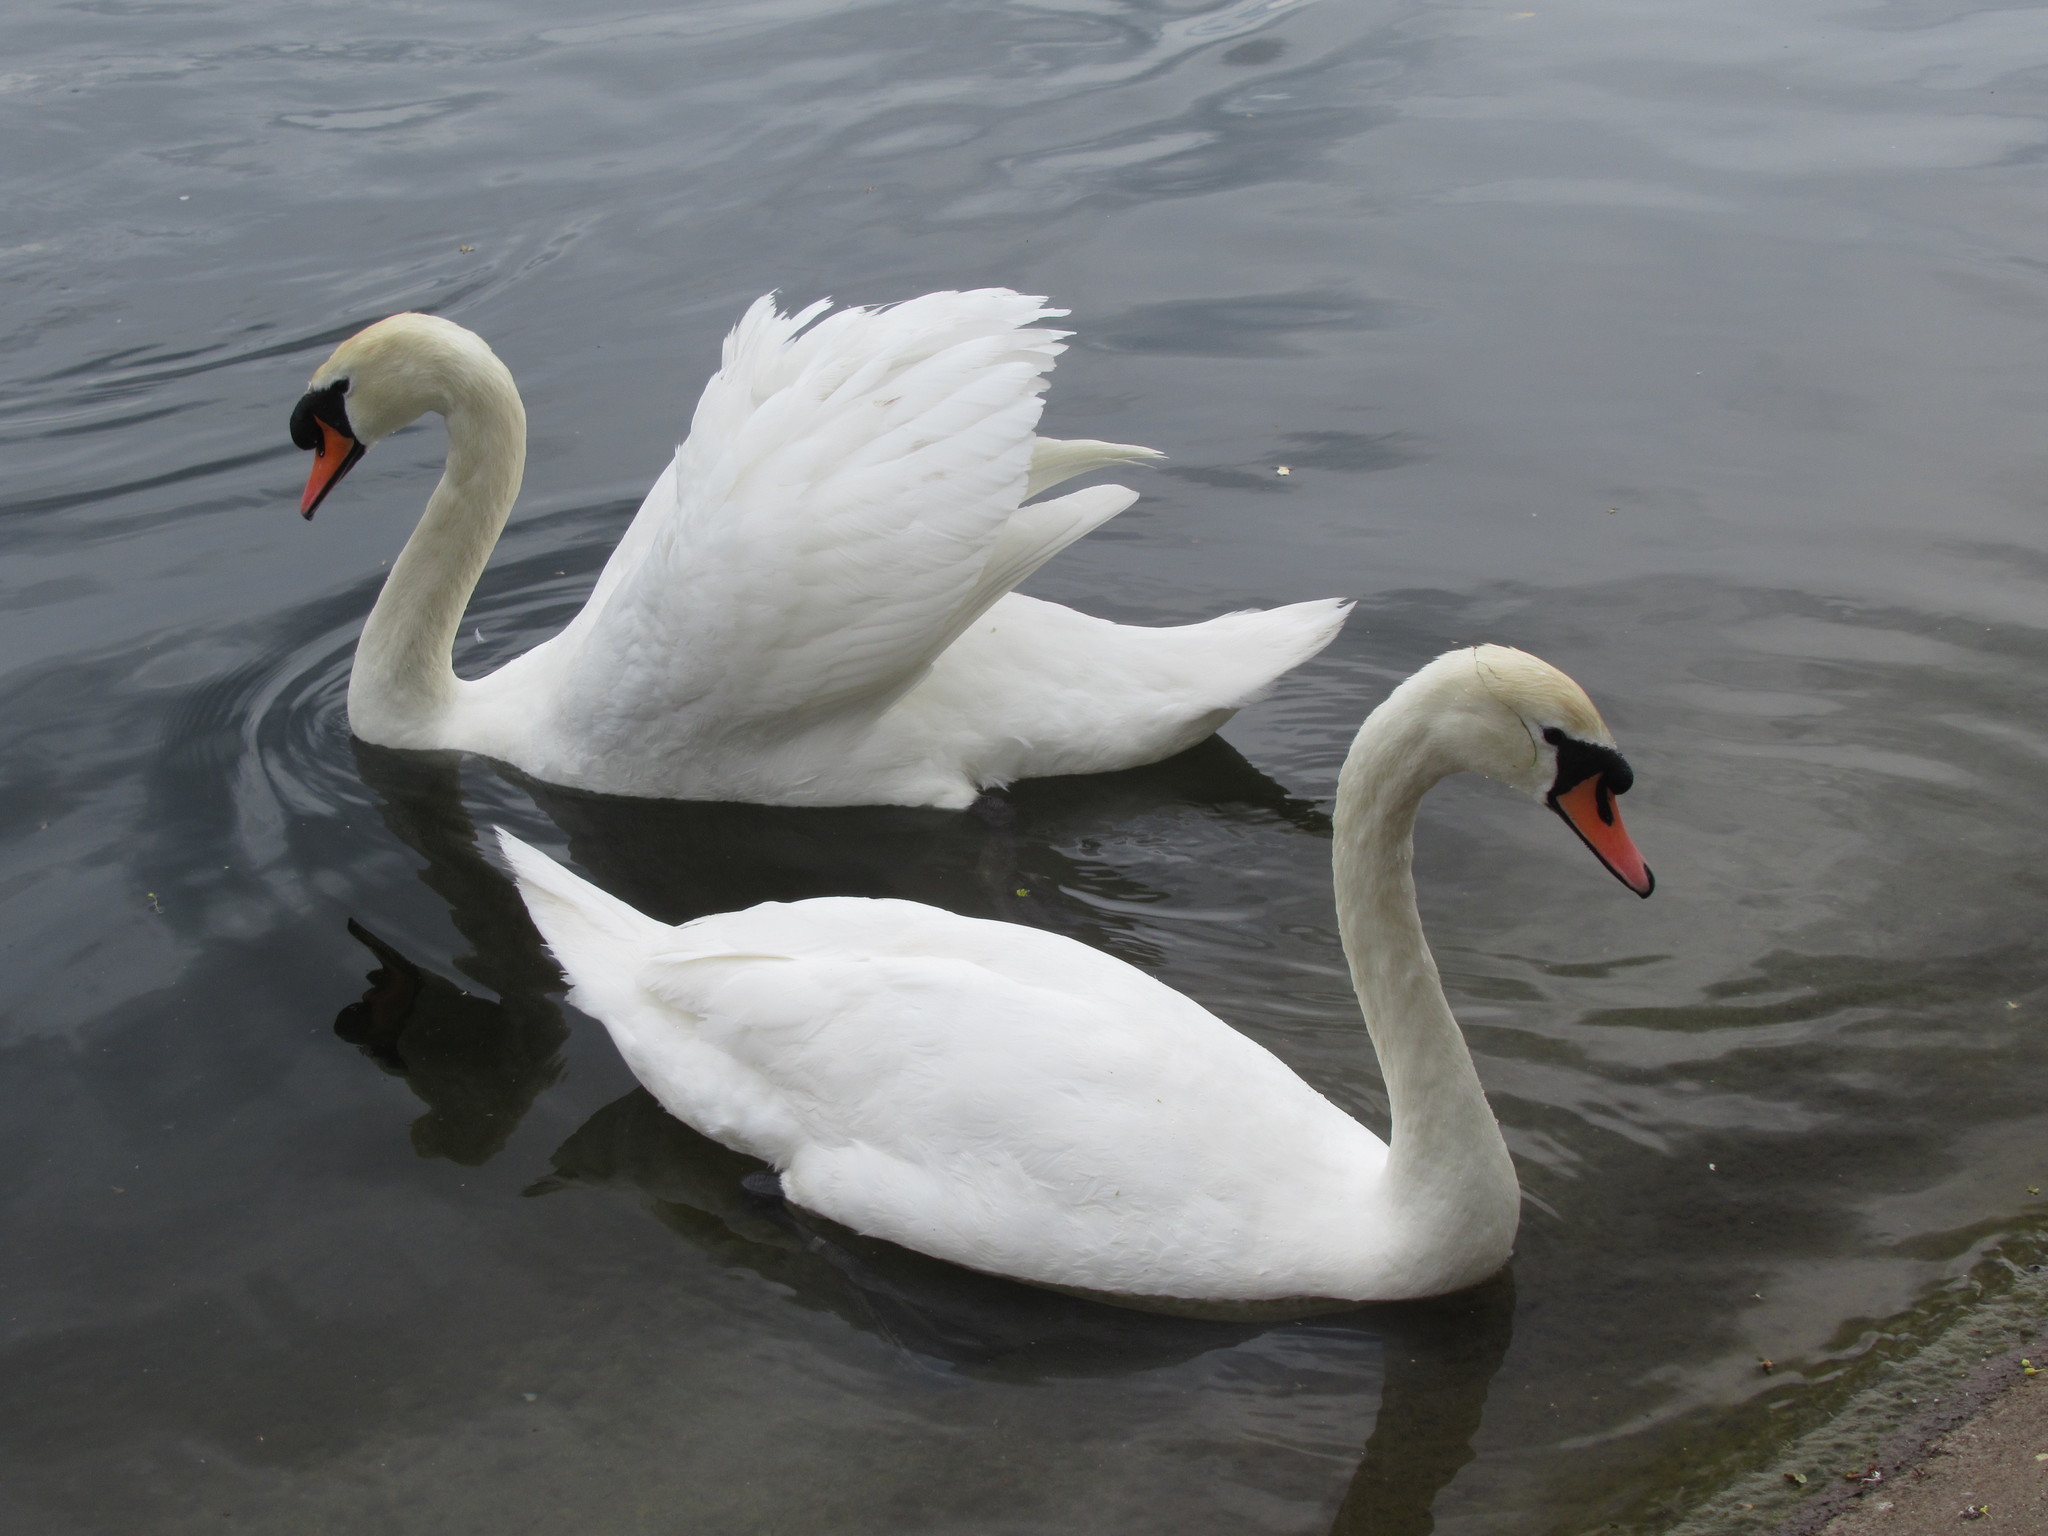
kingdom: Animalia
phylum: Chordata
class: Aves
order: Anseriformes
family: Anatidae
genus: Cygnus
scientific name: Cygnus olor
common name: Mute swan
